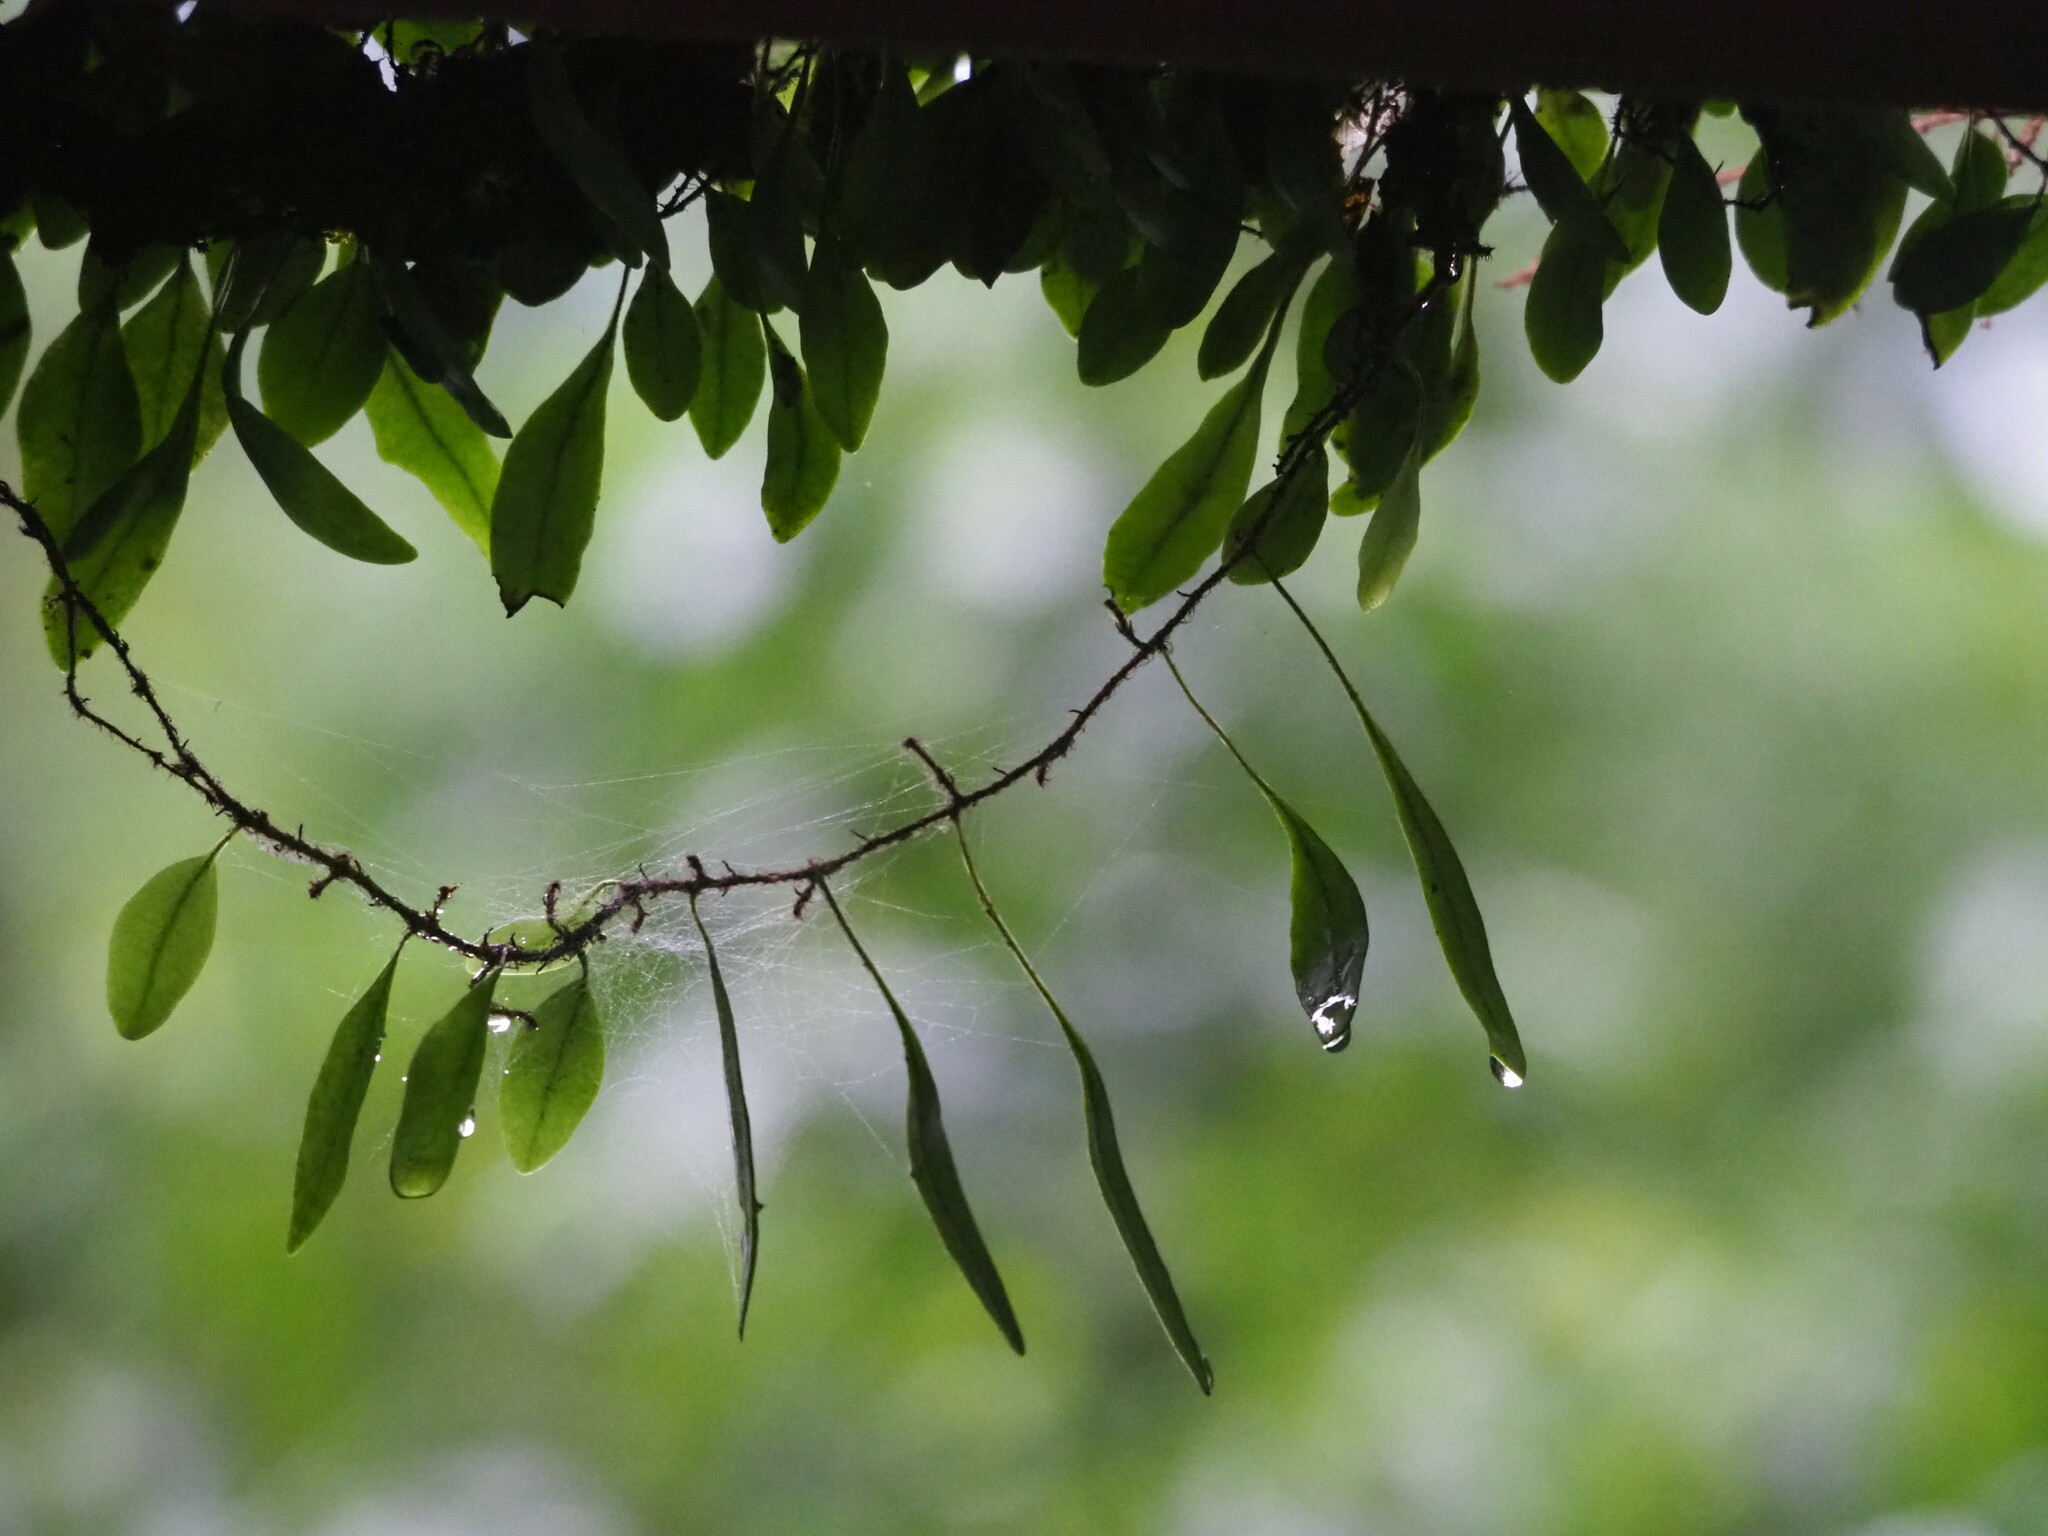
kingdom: Plantae
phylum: Tracheophyta
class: Polypodiopsida
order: Polypodiales
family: Polypodiaceae
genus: Lepisorus
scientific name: Lepisorus microphyllus
